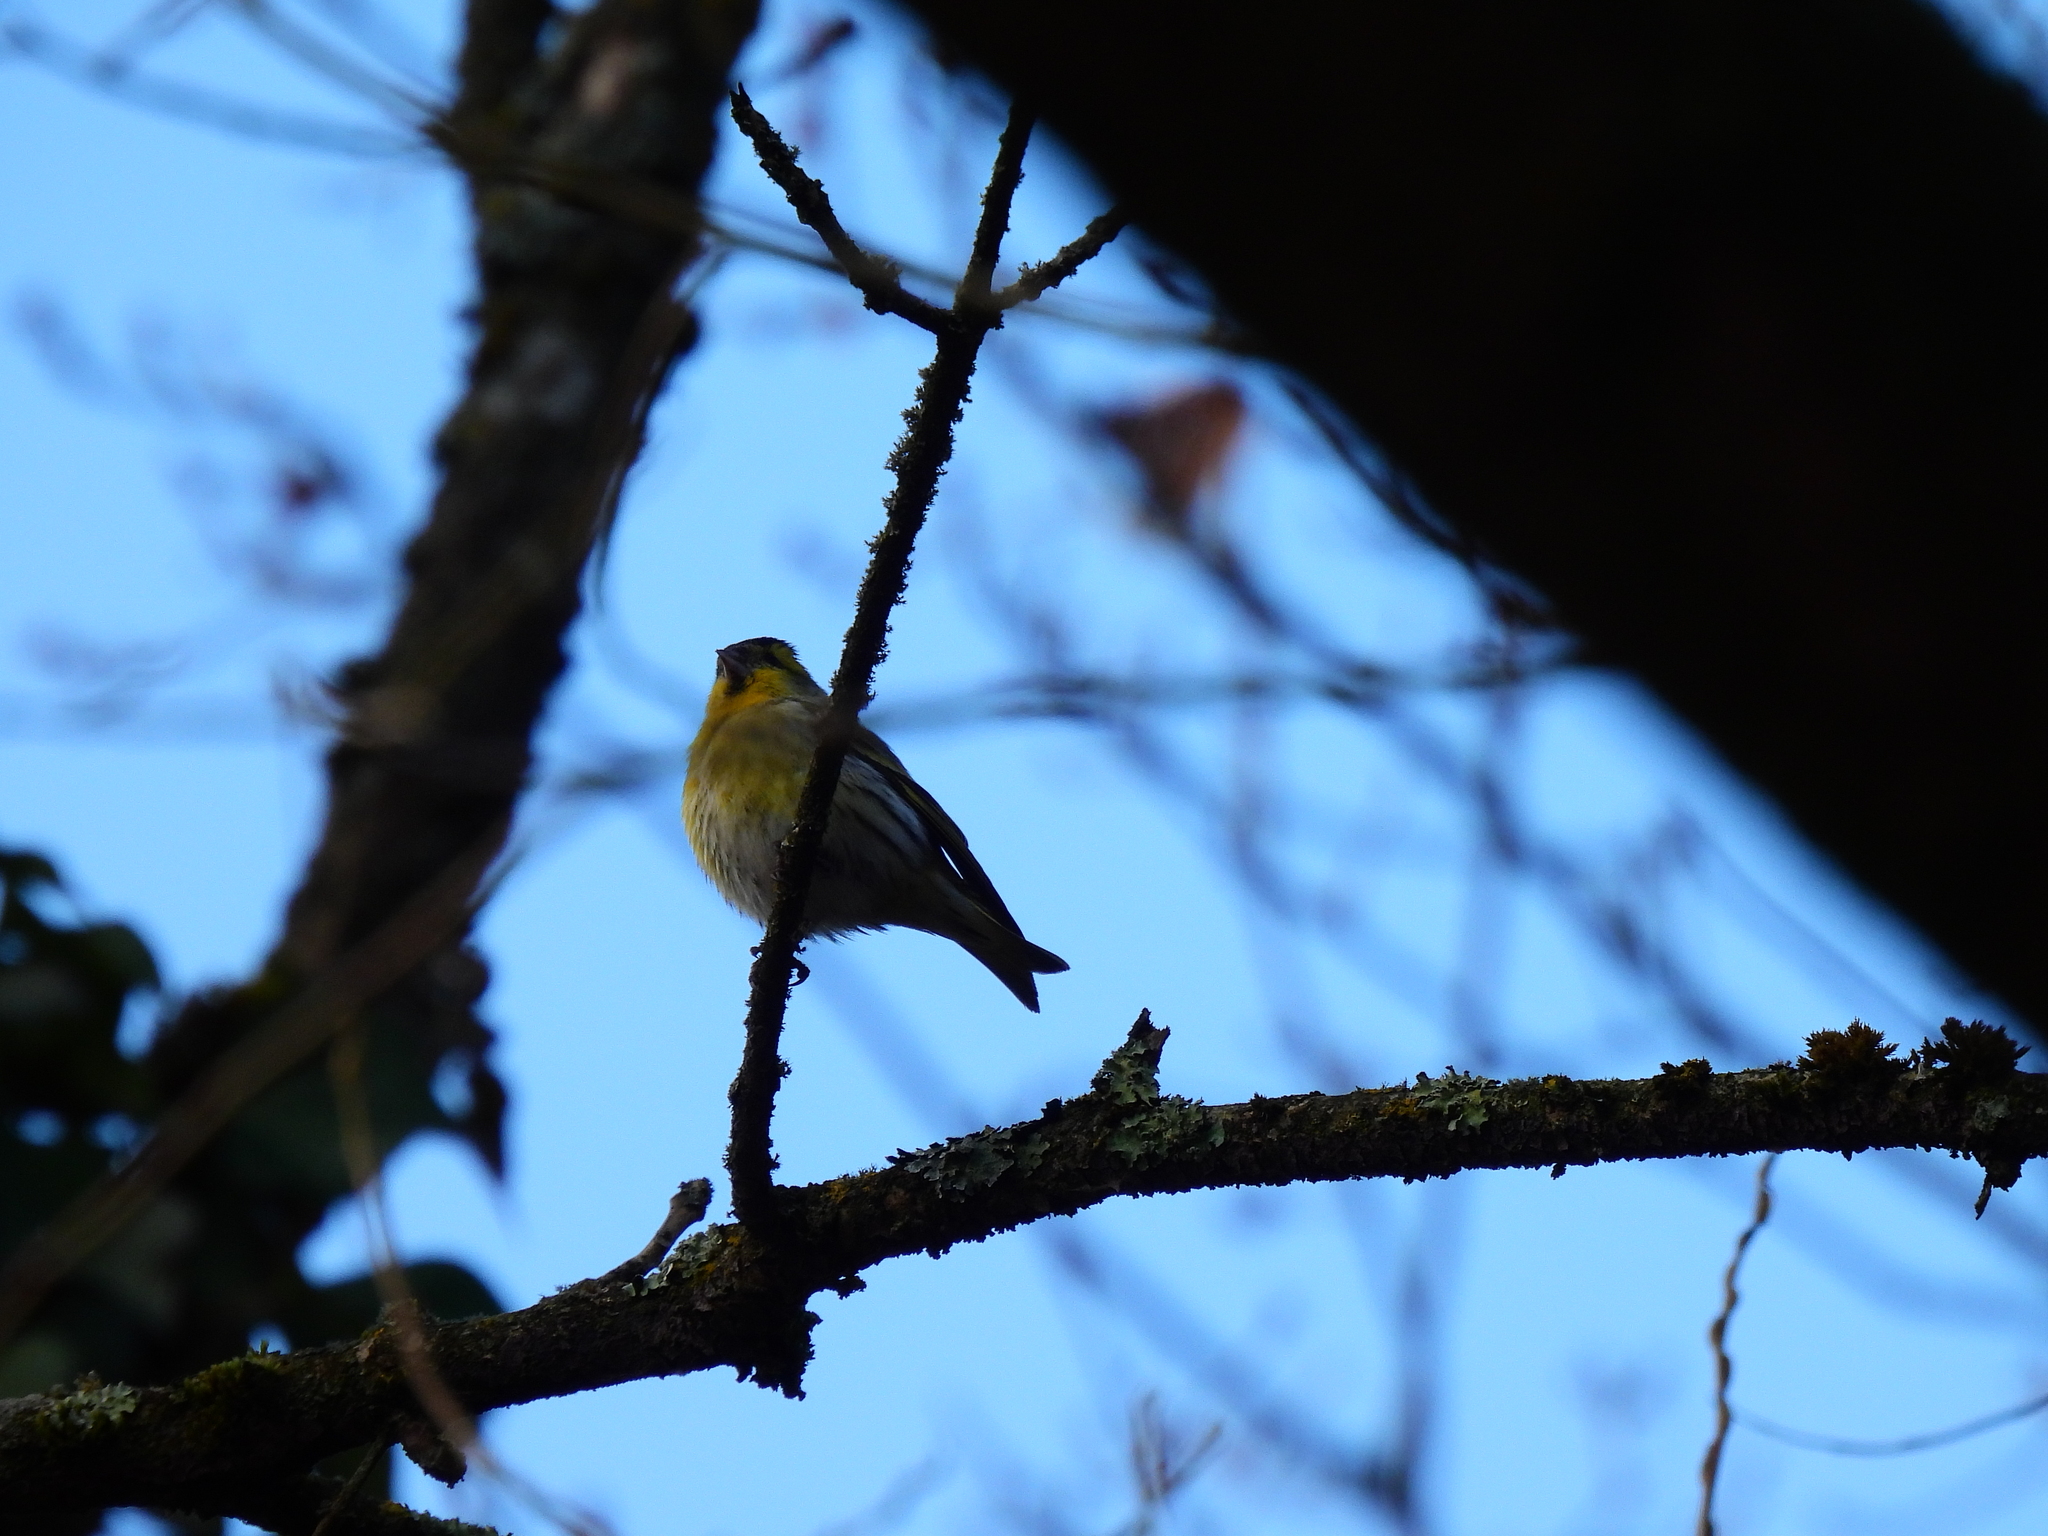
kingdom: Animalia
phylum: Chordata
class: Aves
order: Passeriformes
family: Fringillidae
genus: Spinus
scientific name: Spinus spinus
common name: Eurasian siskin
